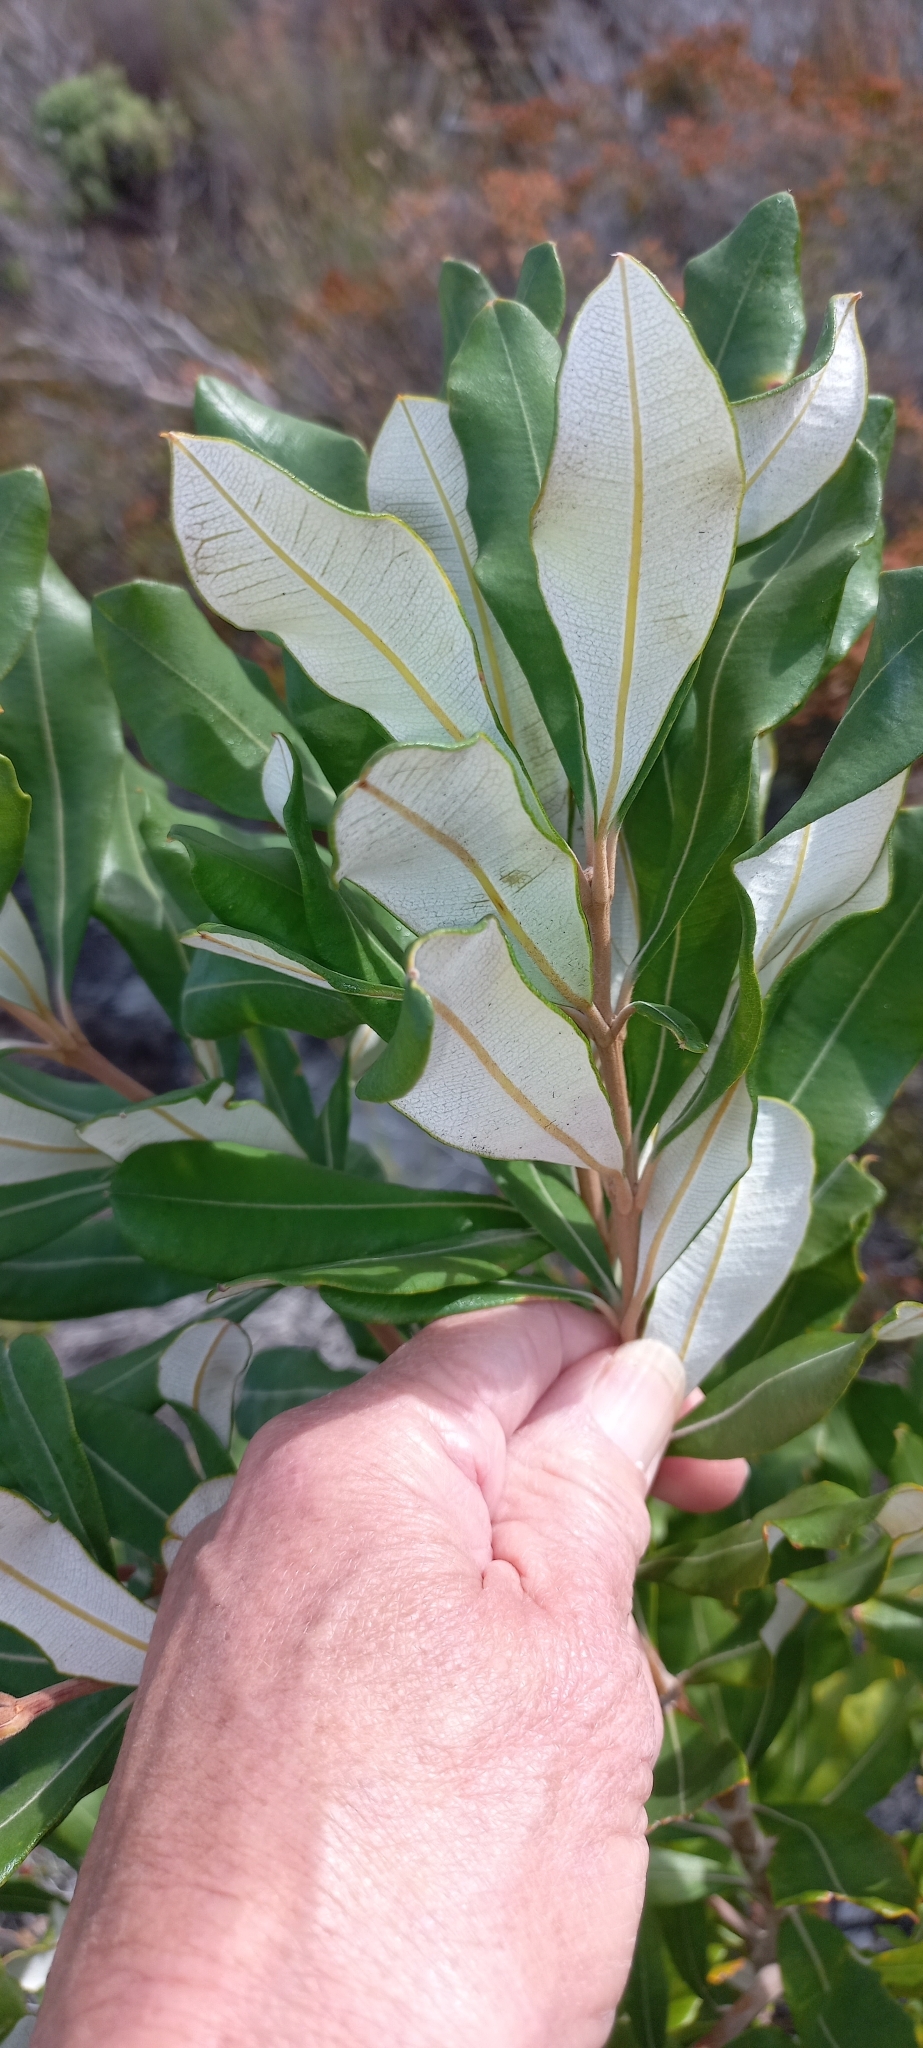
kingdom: Plantae
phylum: Tracheophyta
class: Magnoliopsida
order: Proteales
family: Proteaceae
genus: Banksia
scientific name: Banksia integrifolia
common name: White-honeysuckle
